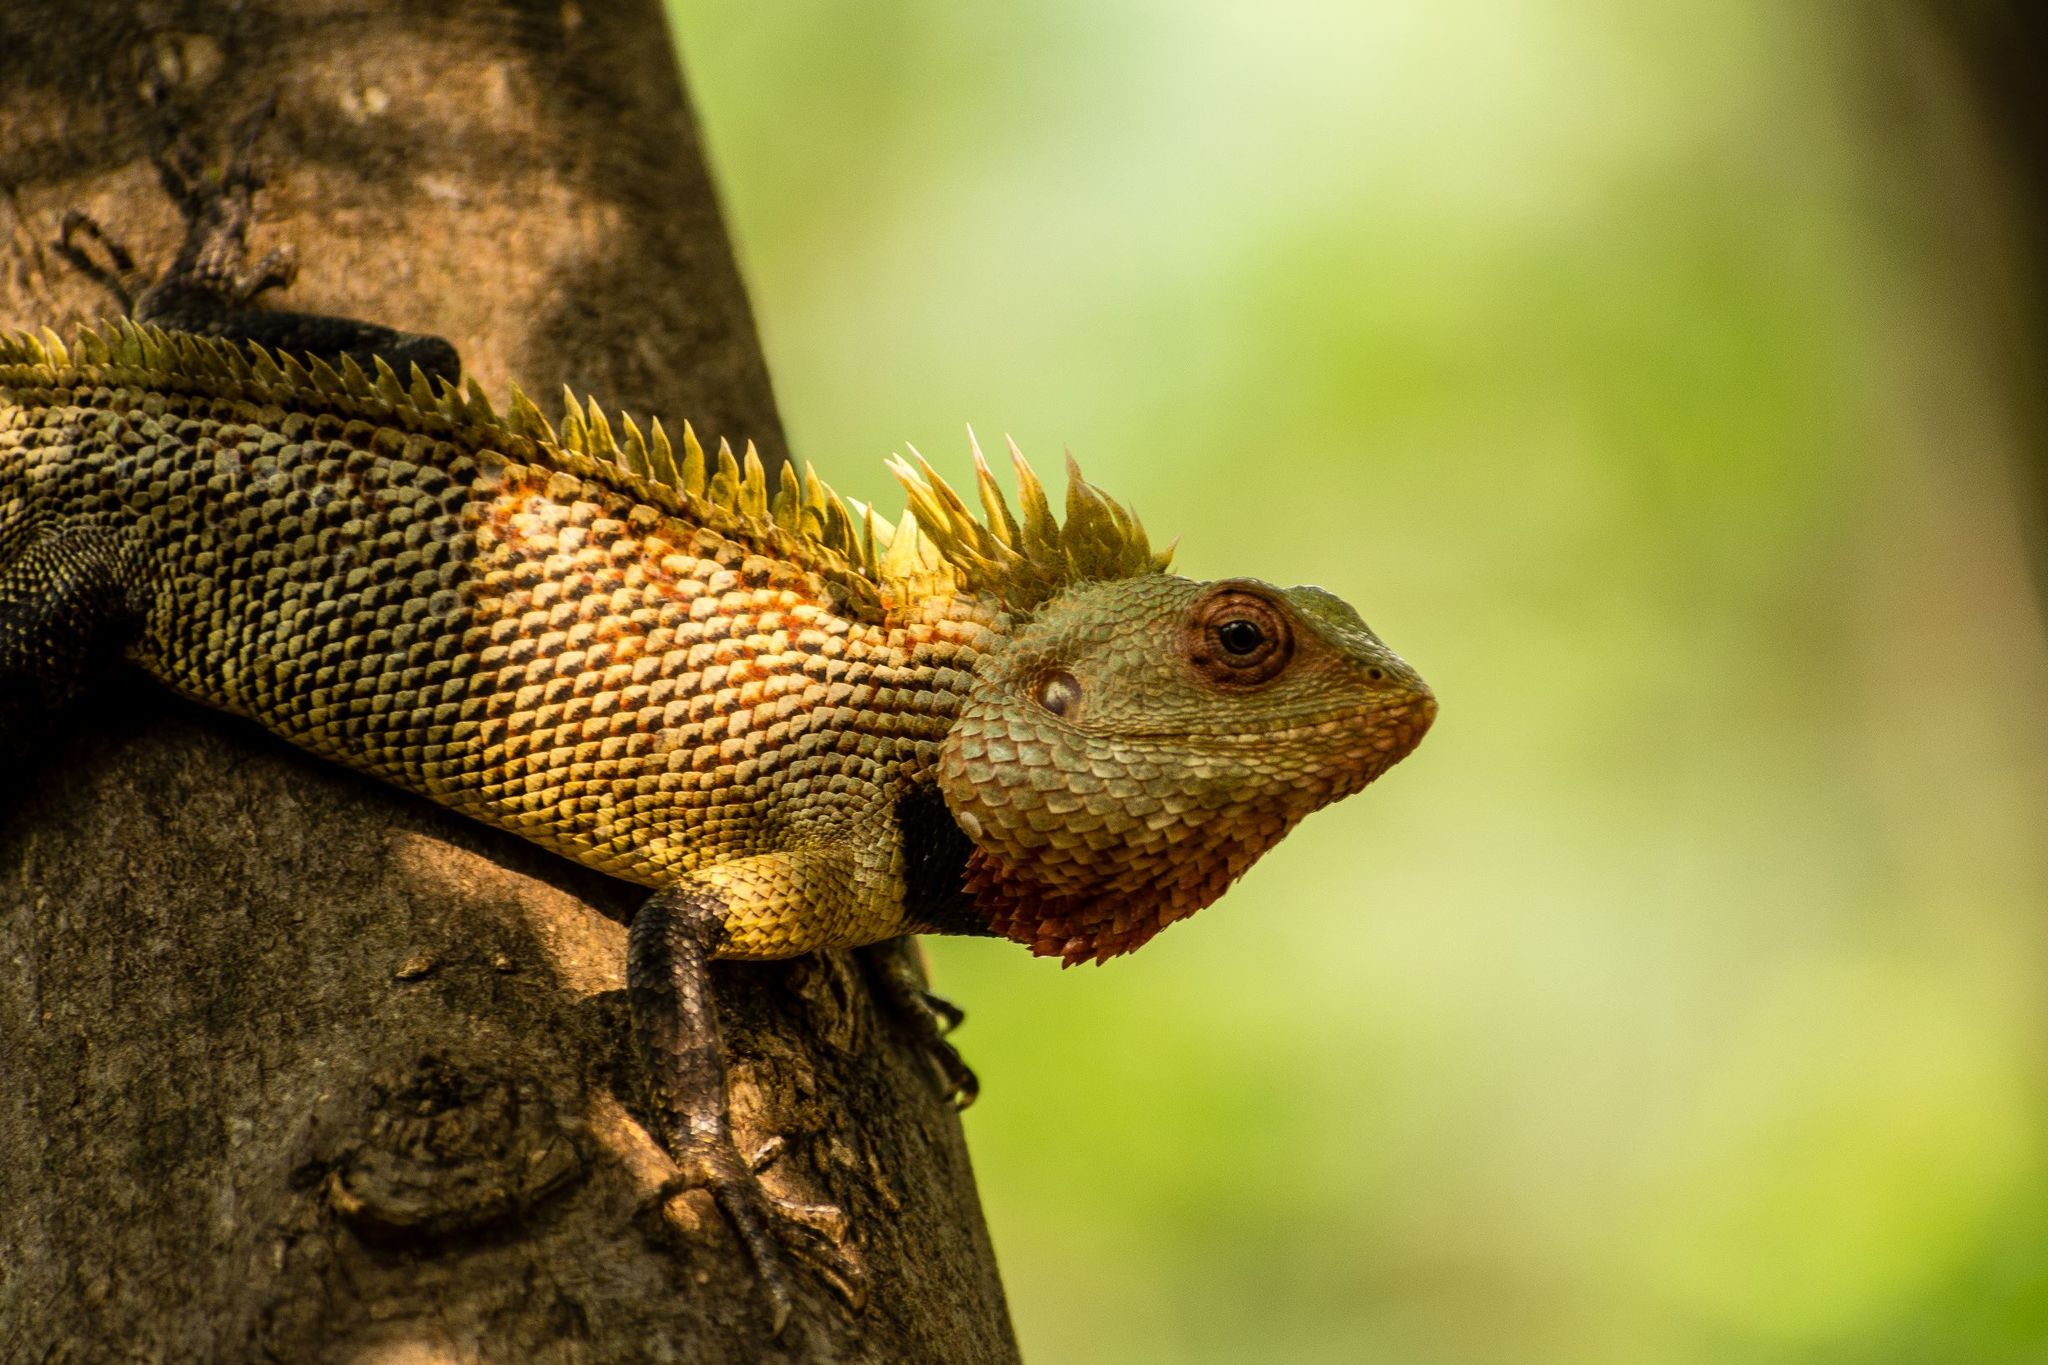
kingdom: Animalia
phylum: Chordata
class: Squamata
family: Agamidae
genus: Calotes
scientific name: Calotes versicolor
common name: Oriental garden lizard
